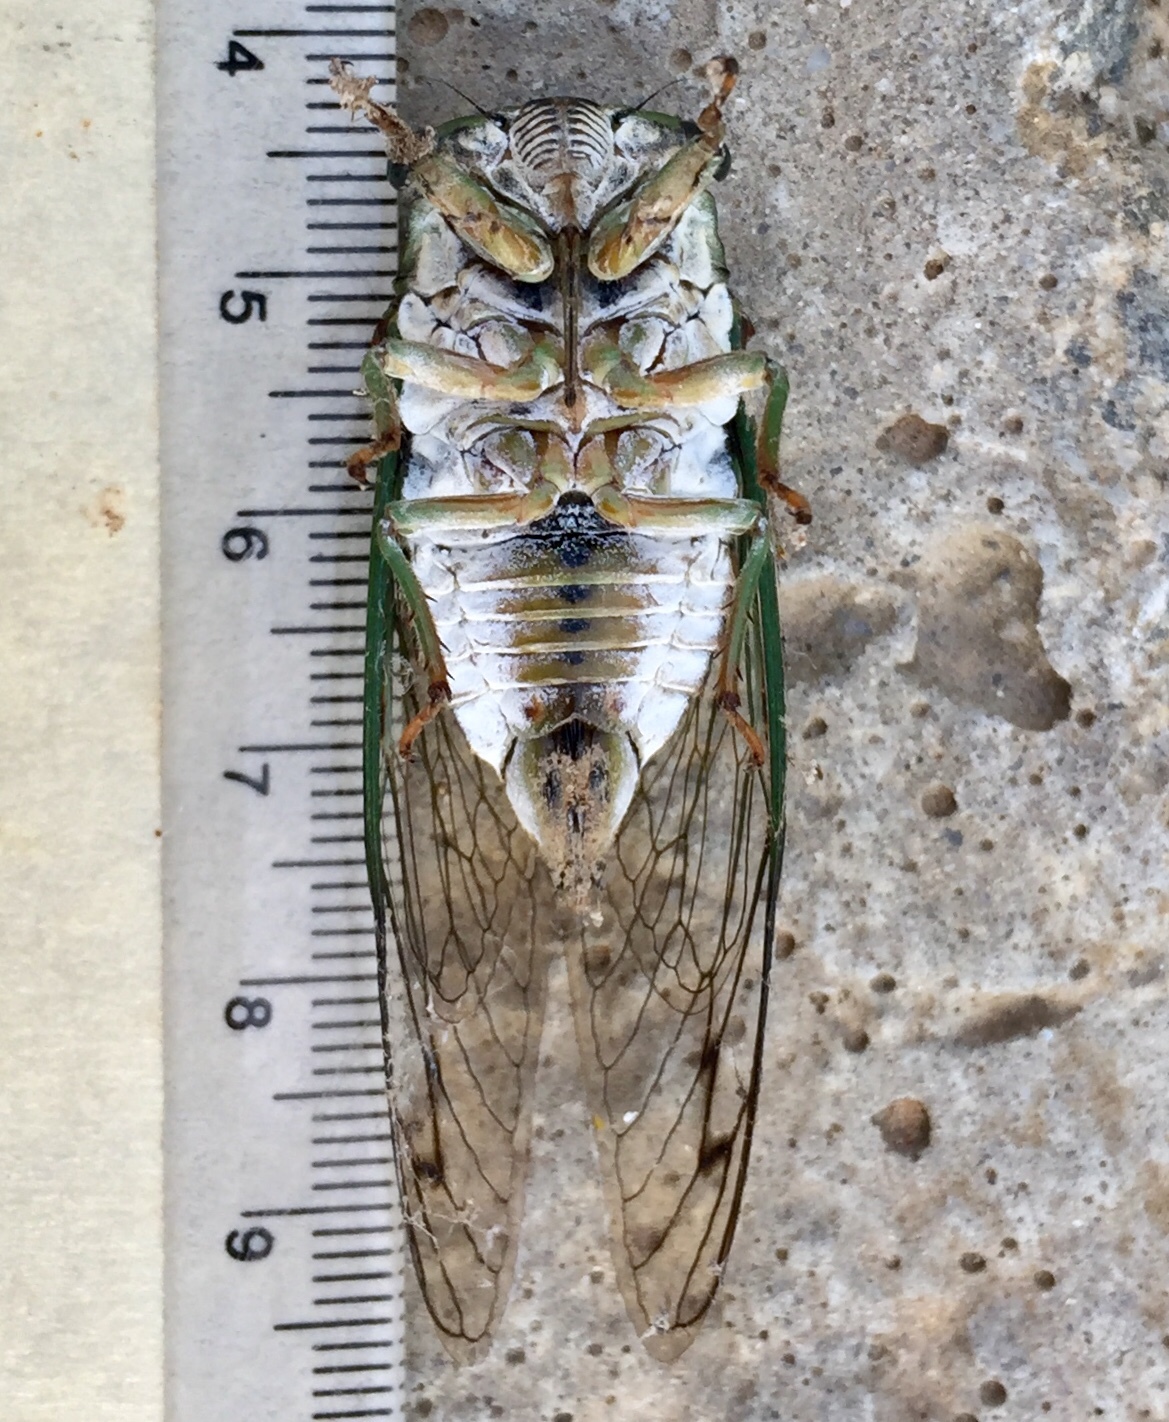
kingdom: Animalia
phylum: Arthropoda
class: Insecta
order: Hemiptera
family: Cicadidae
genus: Neotibicen
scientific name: Neotibicen winnemanna
